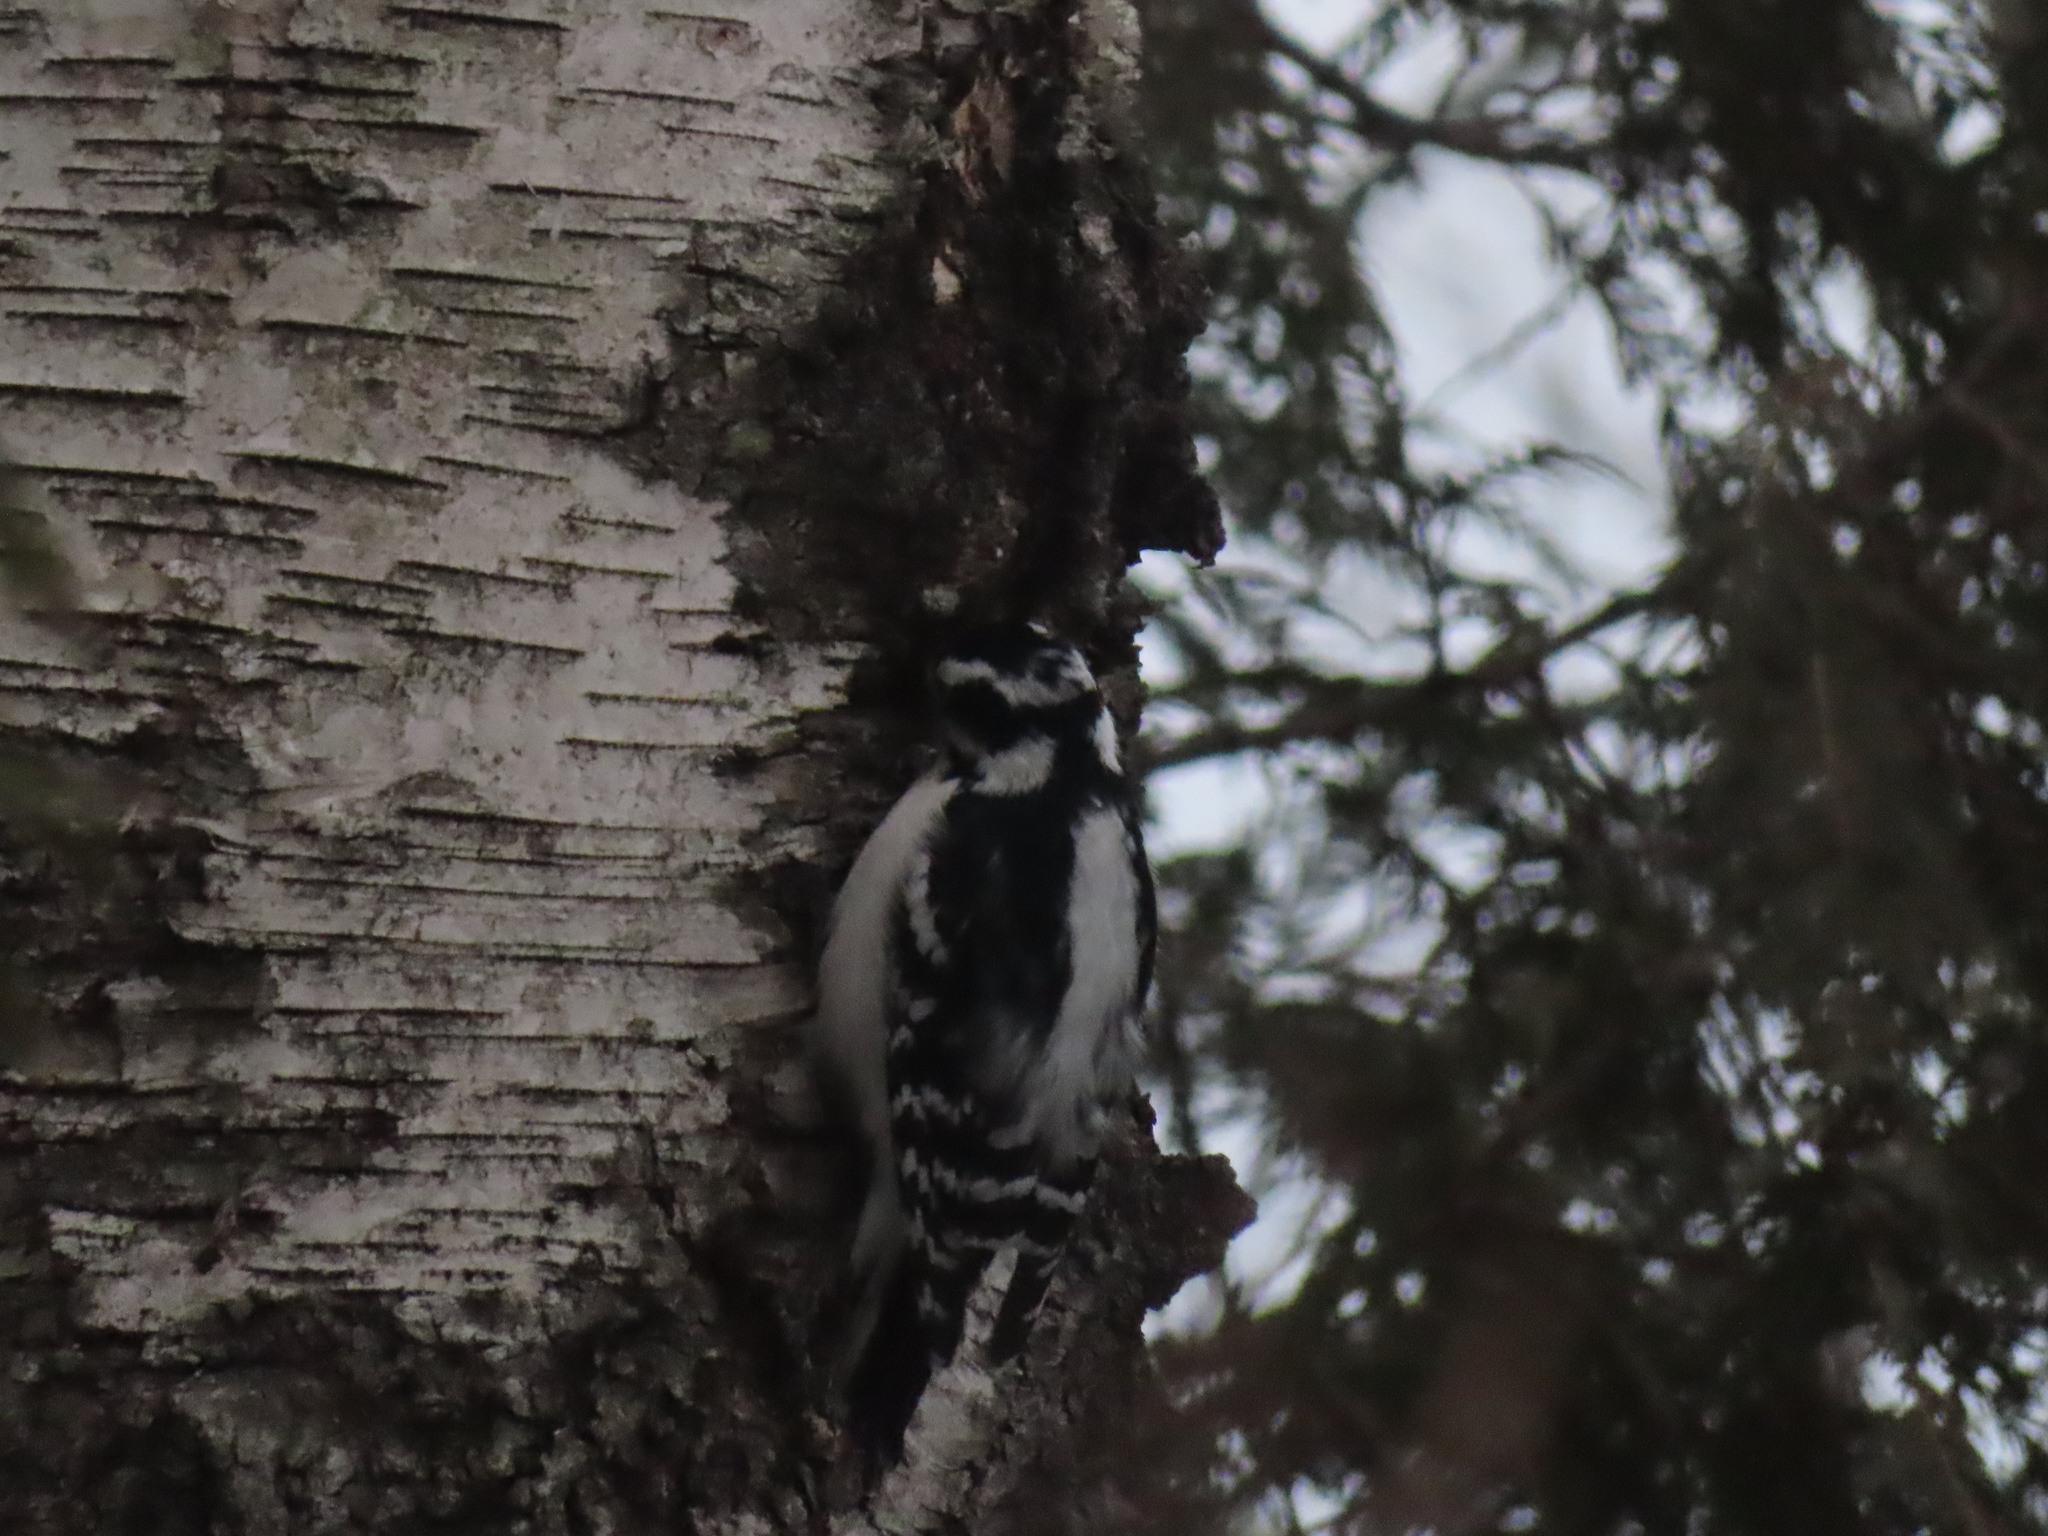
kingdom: Animalia
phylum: Chordata
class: Aves
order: Piciformes
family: Picidae
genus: Dryobates
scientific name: Dryobates pubescens
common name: Downy woodpecker
